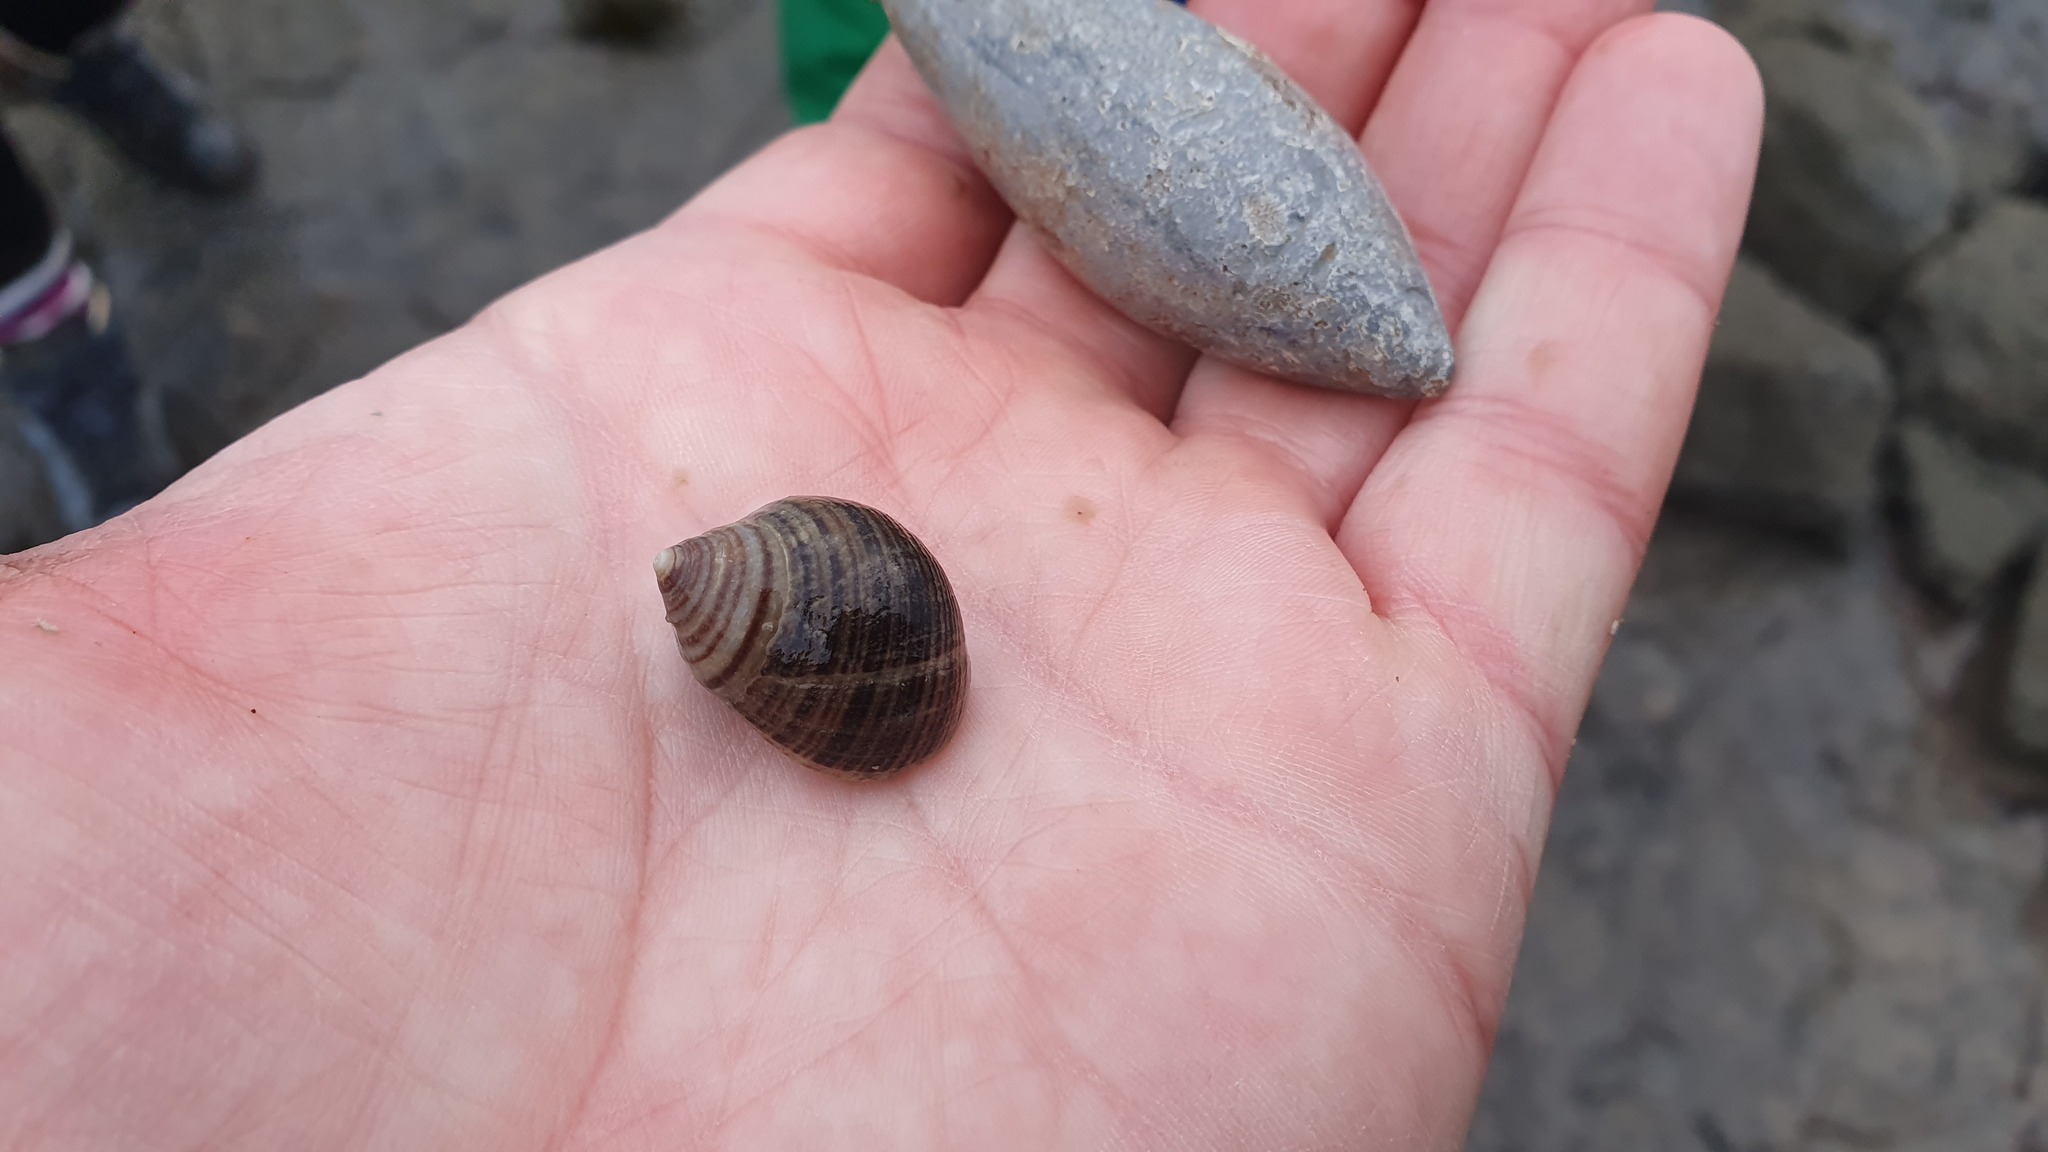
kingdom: Animalia
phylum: Mollusca
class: Gastropoda
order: Littorinimorpha
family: Littorinidae
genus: Littorina
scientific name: Littorina littorea
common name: Common periwinkle
